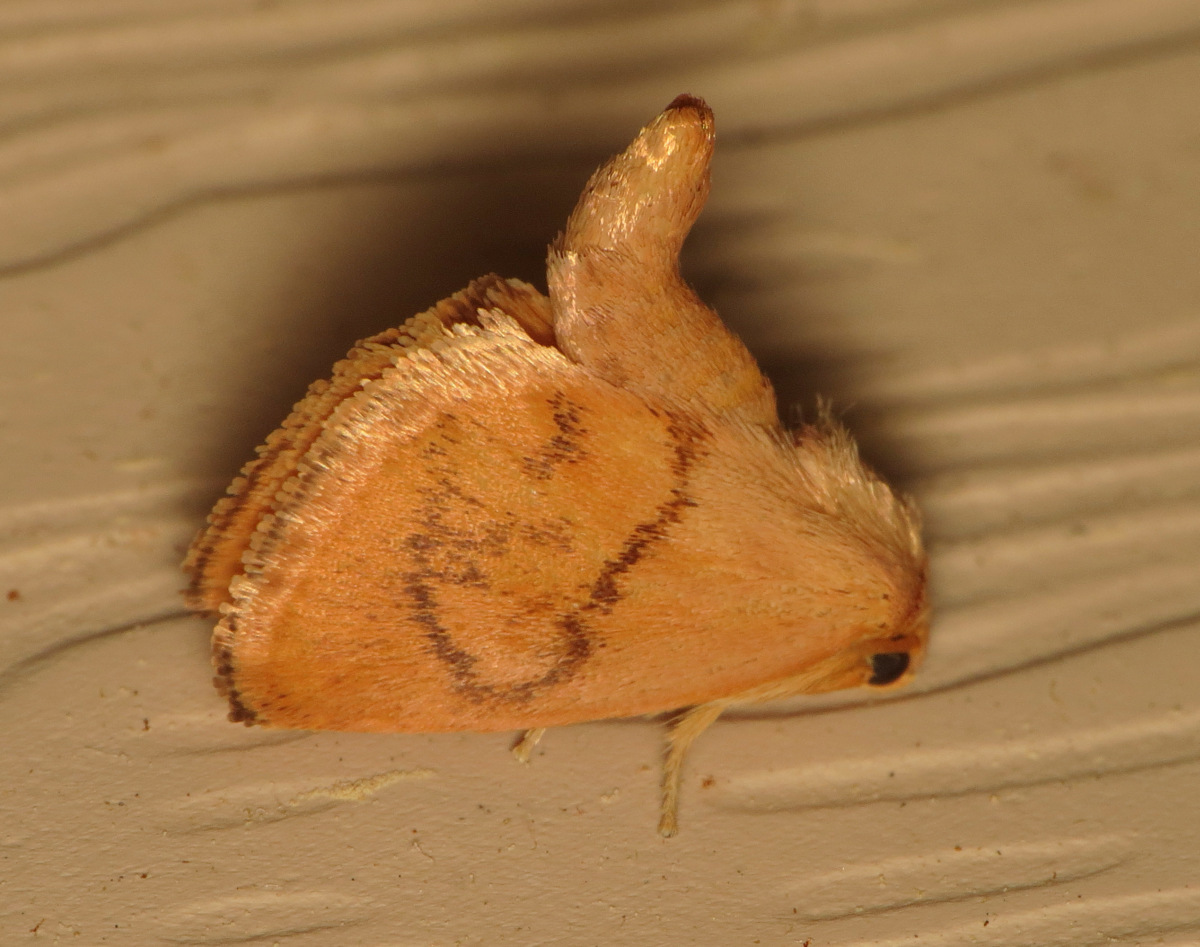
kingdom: Animalia
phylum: Arthropoda
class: Insecta
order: Lepidoptera
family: Limacodidae
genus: Tortricidia
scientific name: Tortricidia flexuosa
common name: Abbreviated button slug moth
